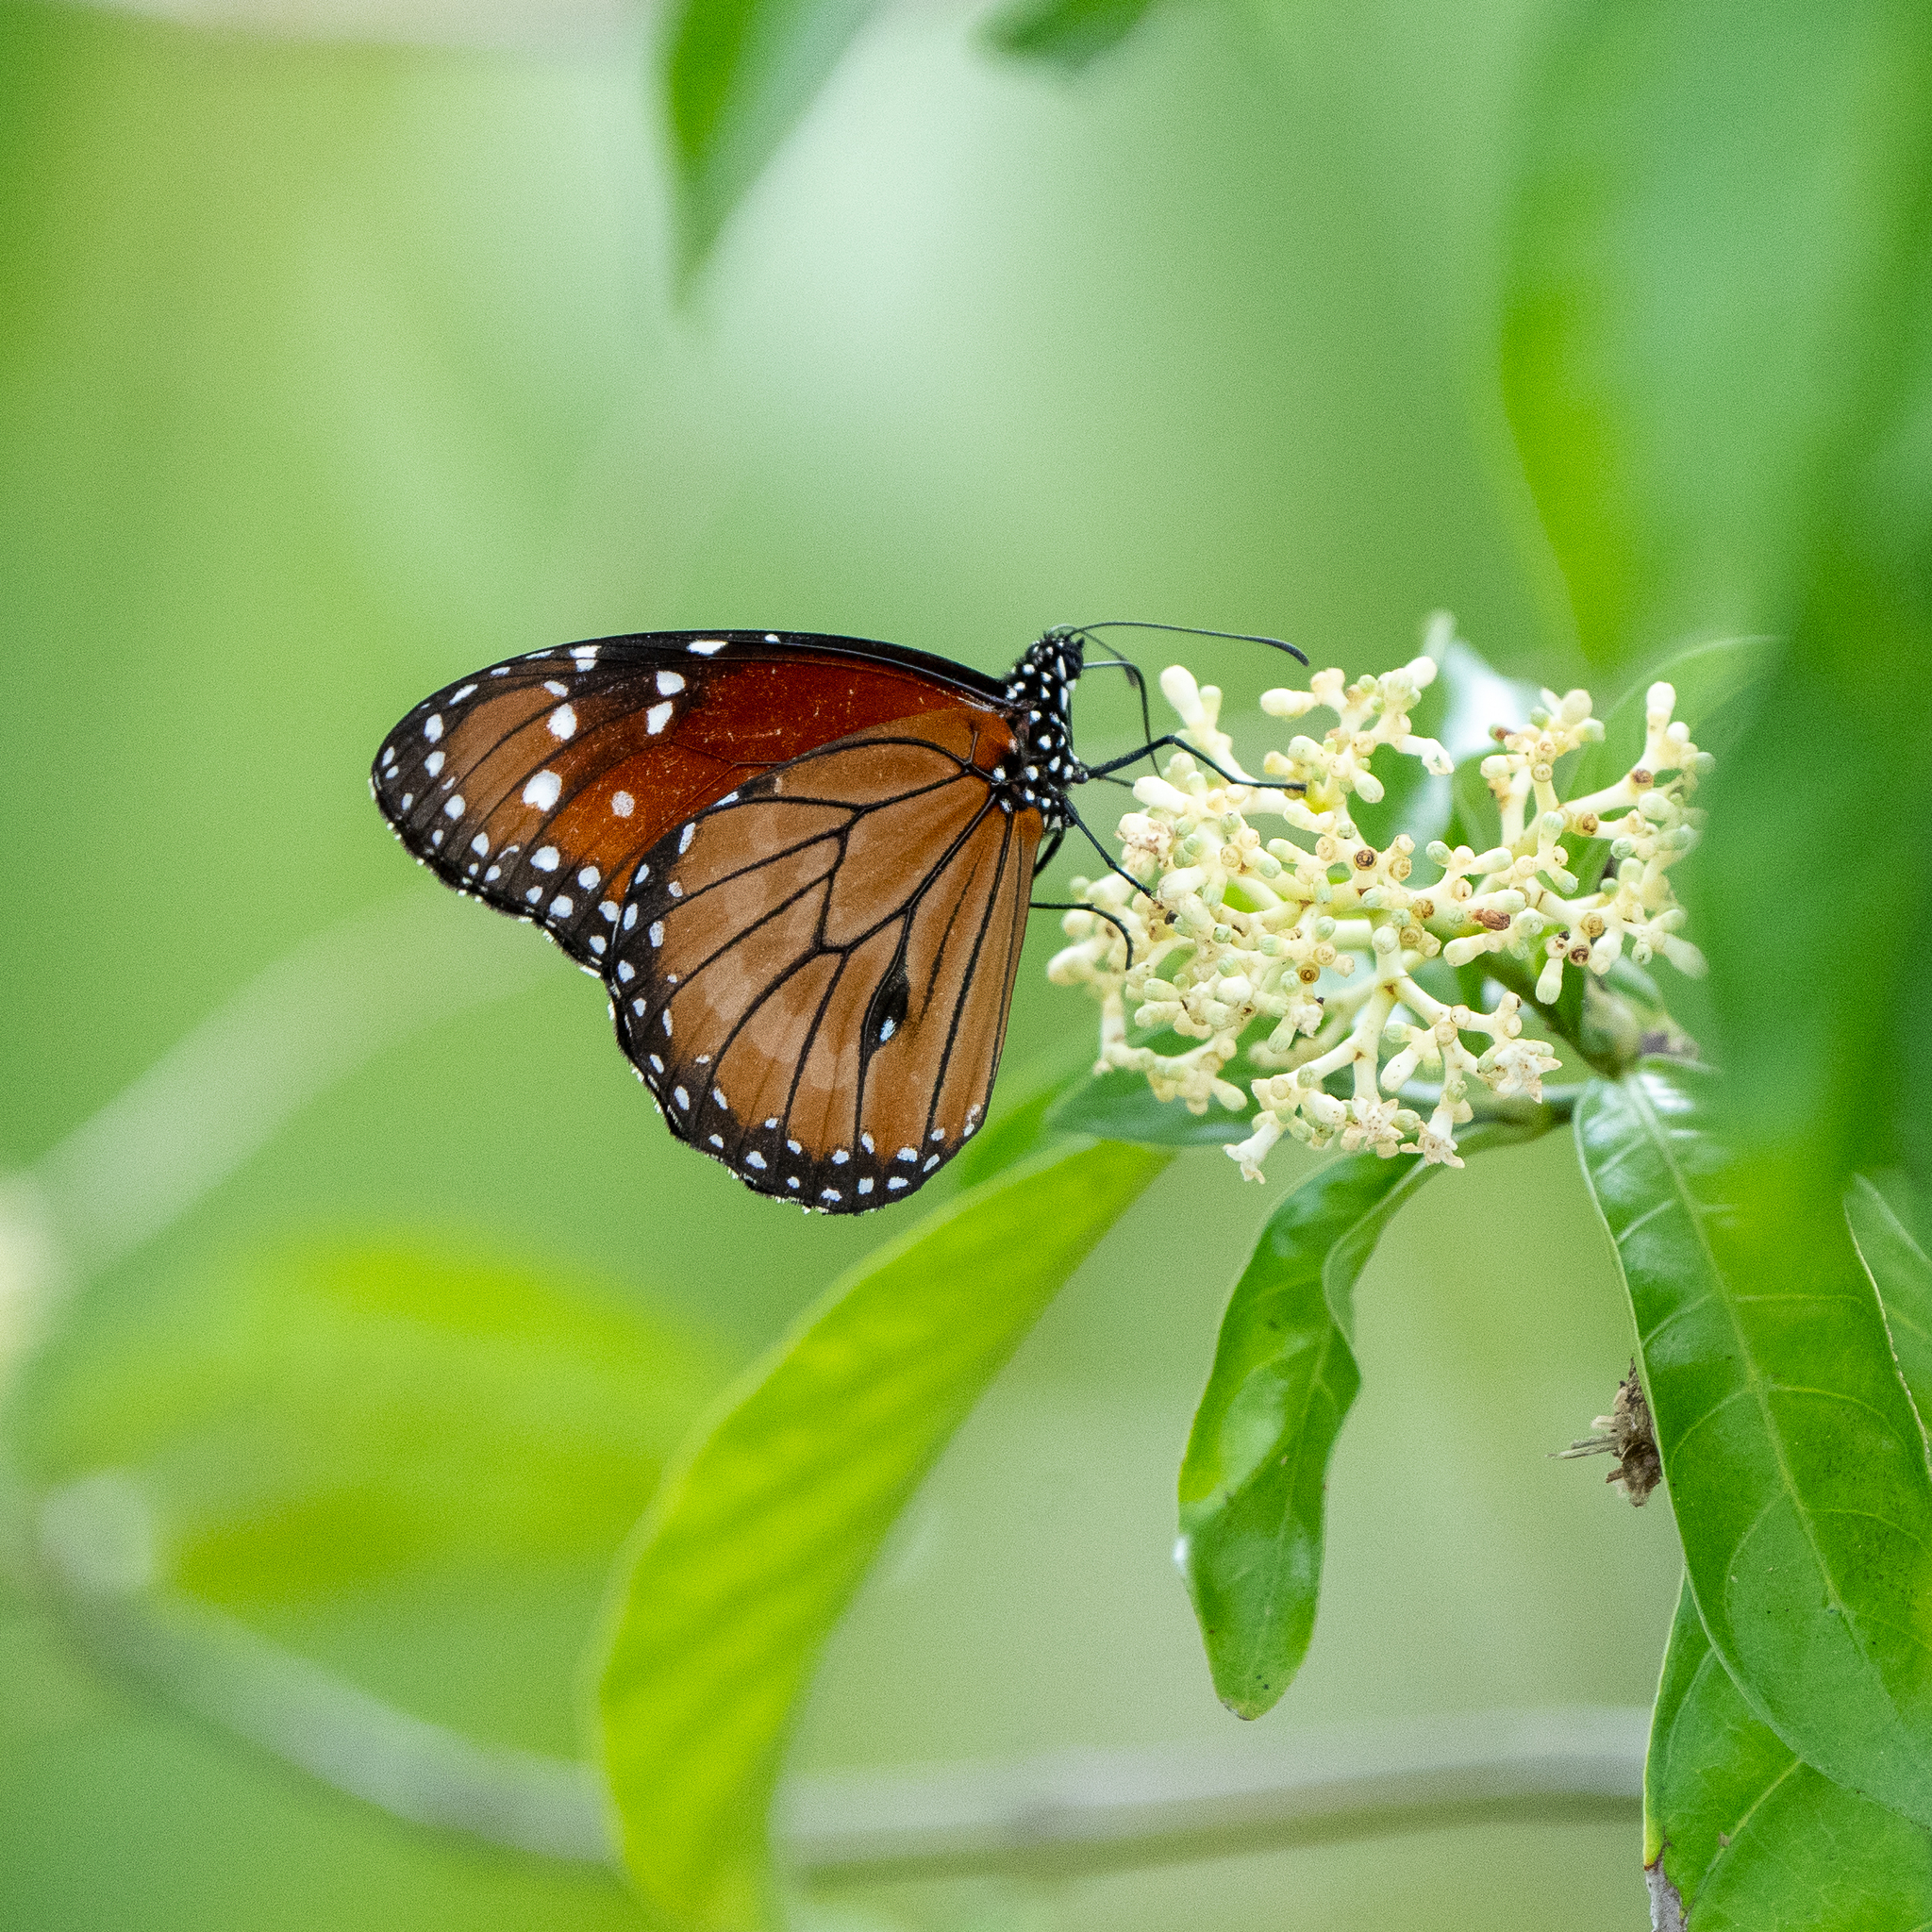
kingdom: Animalia
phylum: Arthropoda
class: Insecta
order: Lepidoptera
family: Nymphalidae
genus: Danaus
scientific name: Danaus eresimus
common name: Soldier
